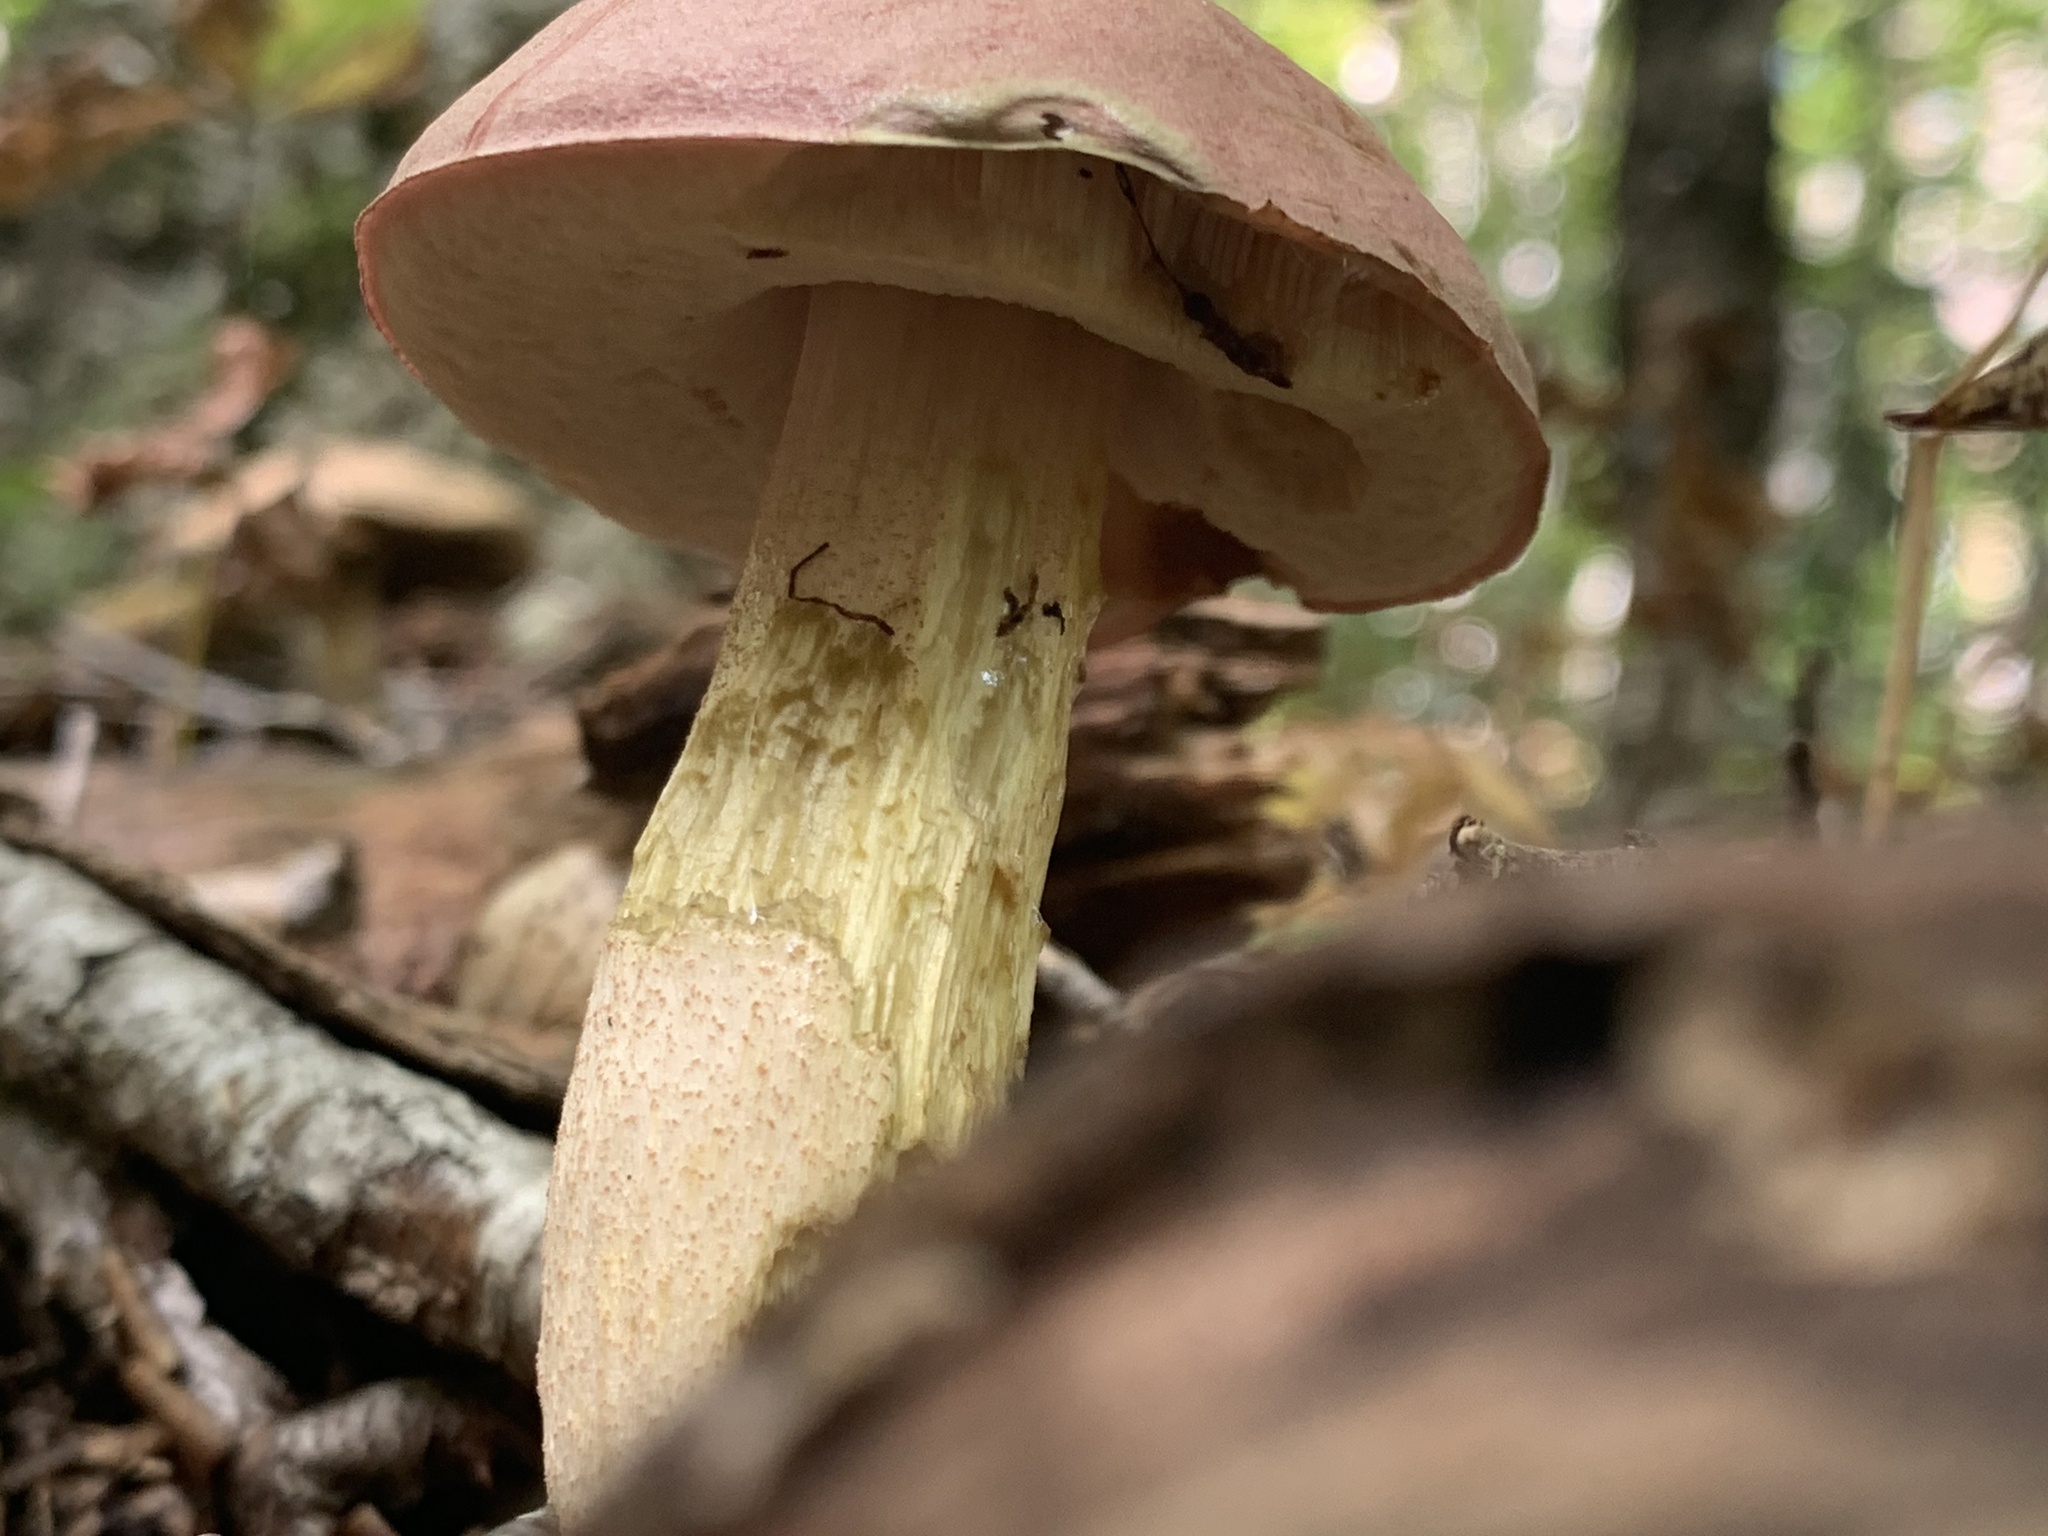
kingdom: Fungi
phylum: Basidiomycota
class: Agaricomycetes
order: Boletales
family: Boletaceae
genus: Harrya
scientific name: Harrya chromipes
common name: Chrome-footed bolete
